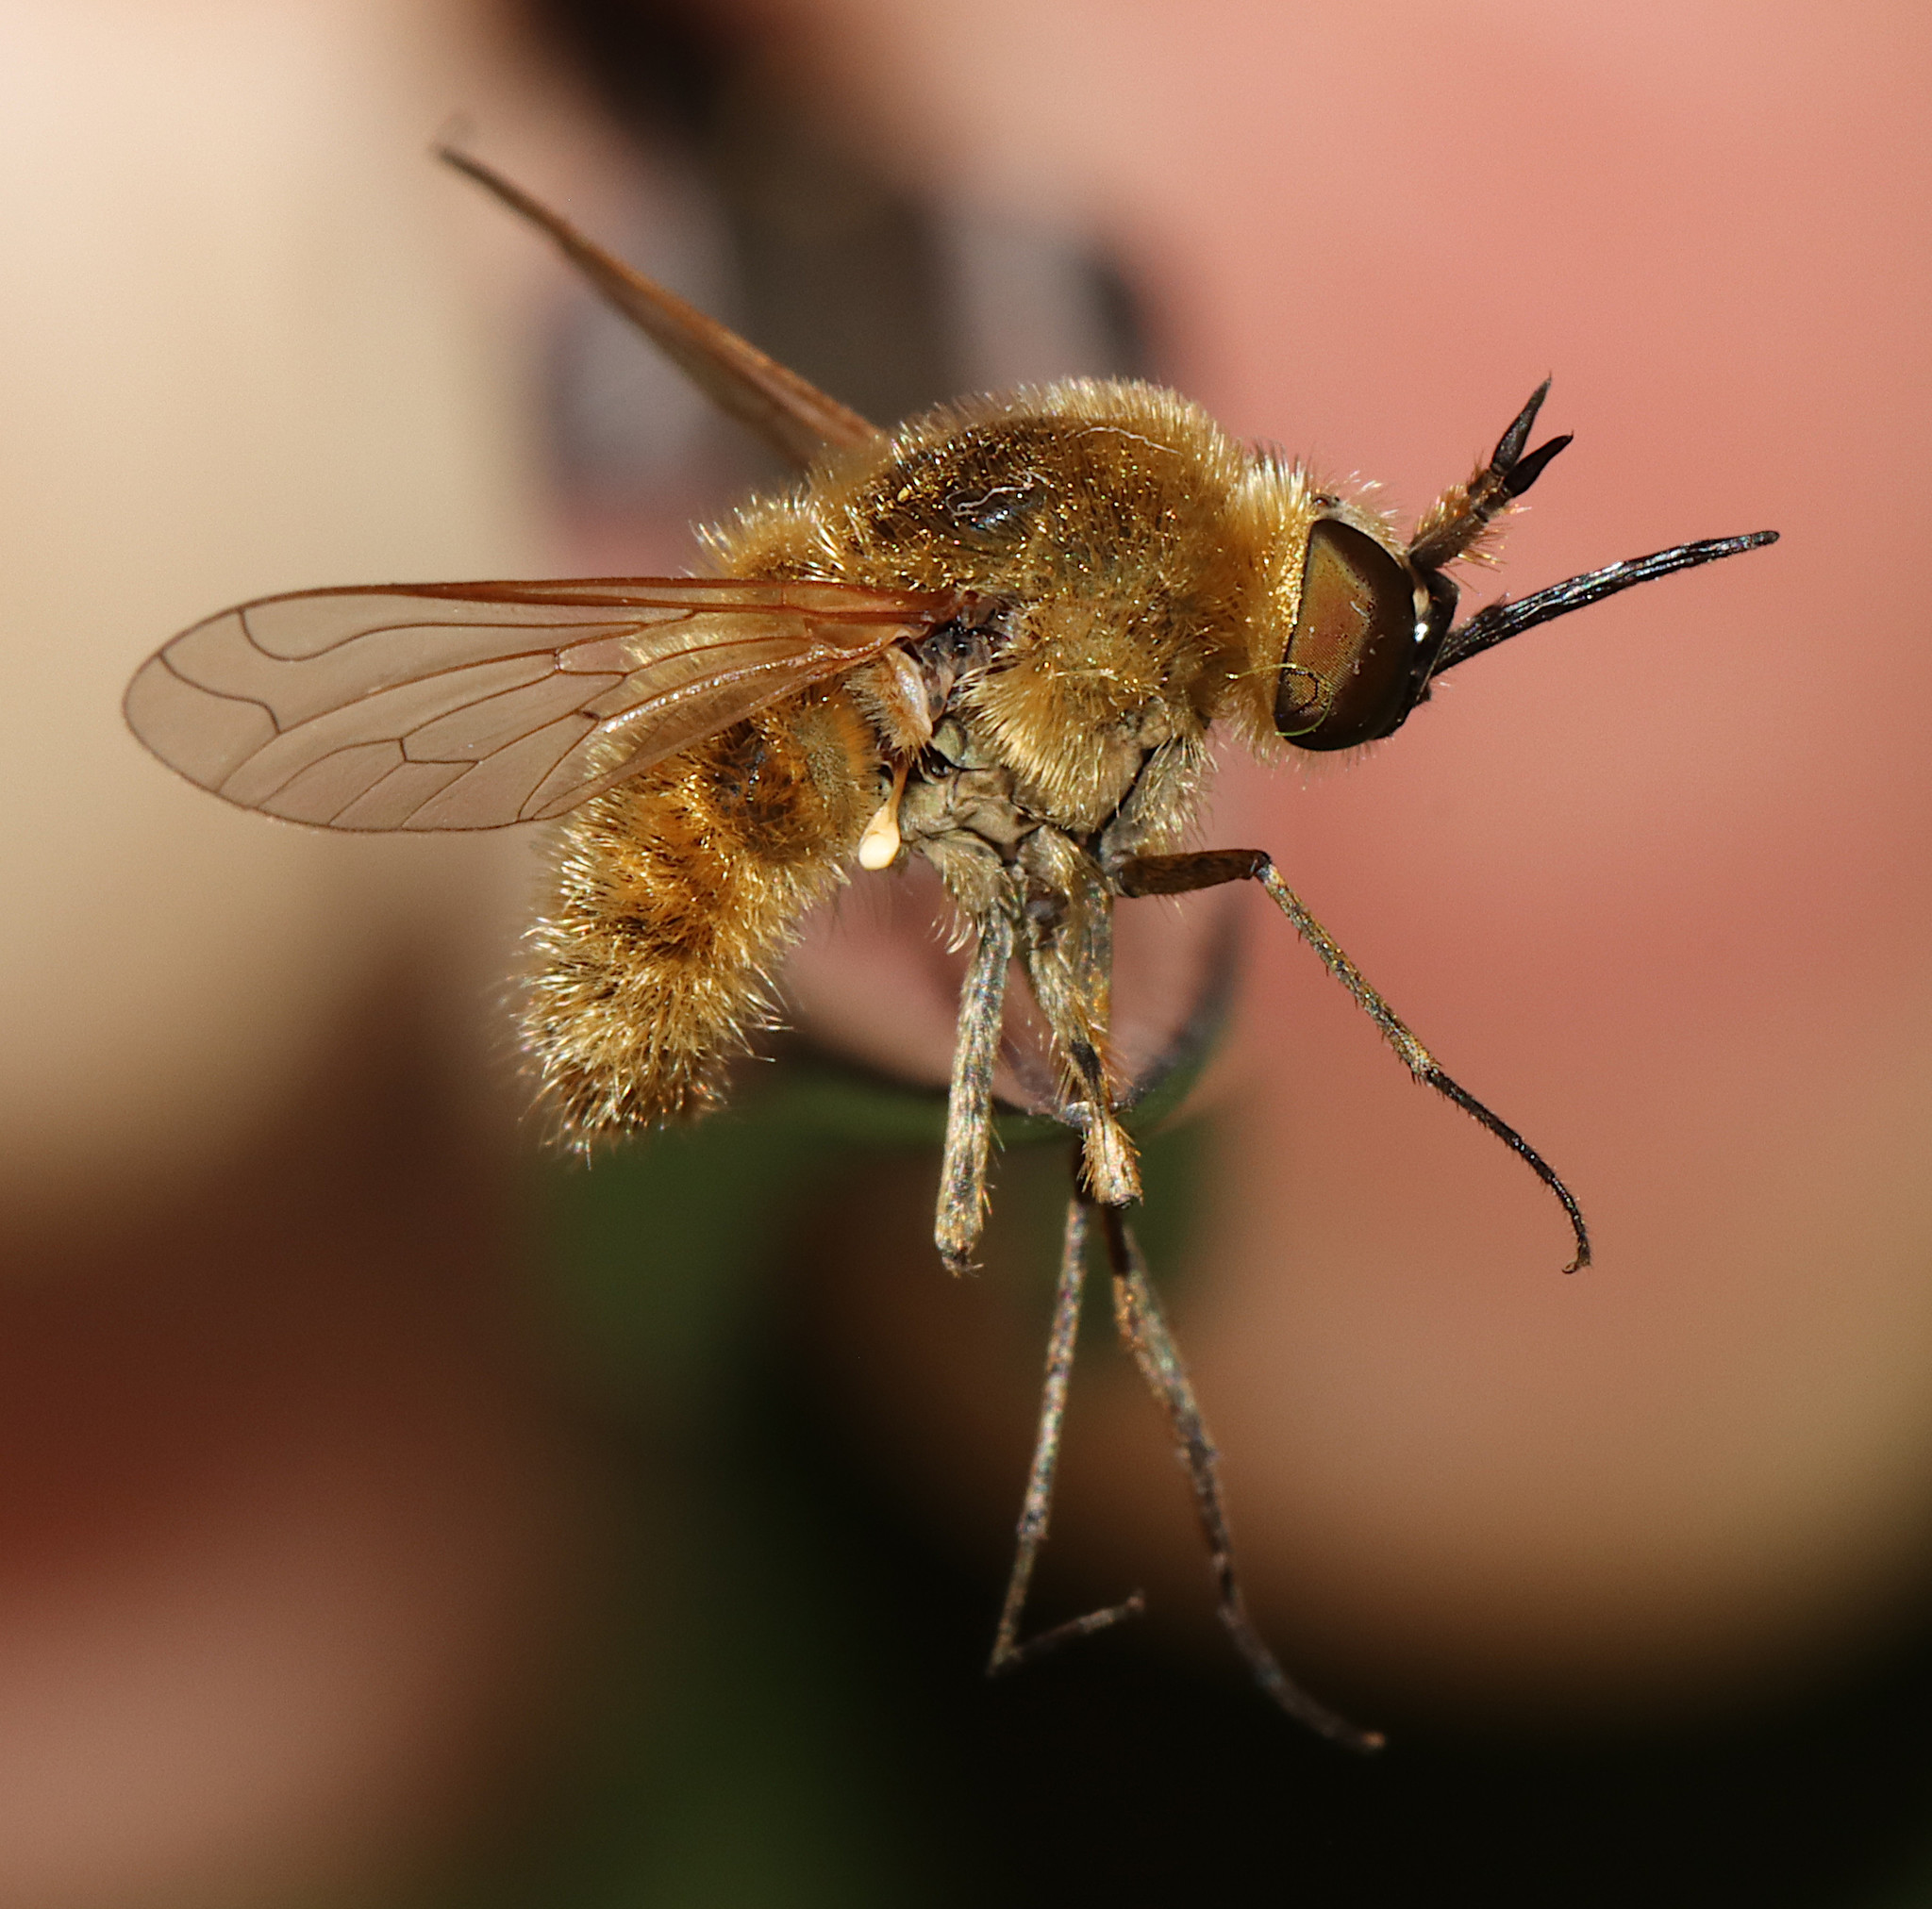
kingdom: Animalia
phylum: Arthropoda
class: Insecta
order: Diptera
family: Bombyliidae
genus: Sparnopolius
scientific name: Sparnopolius confusus
